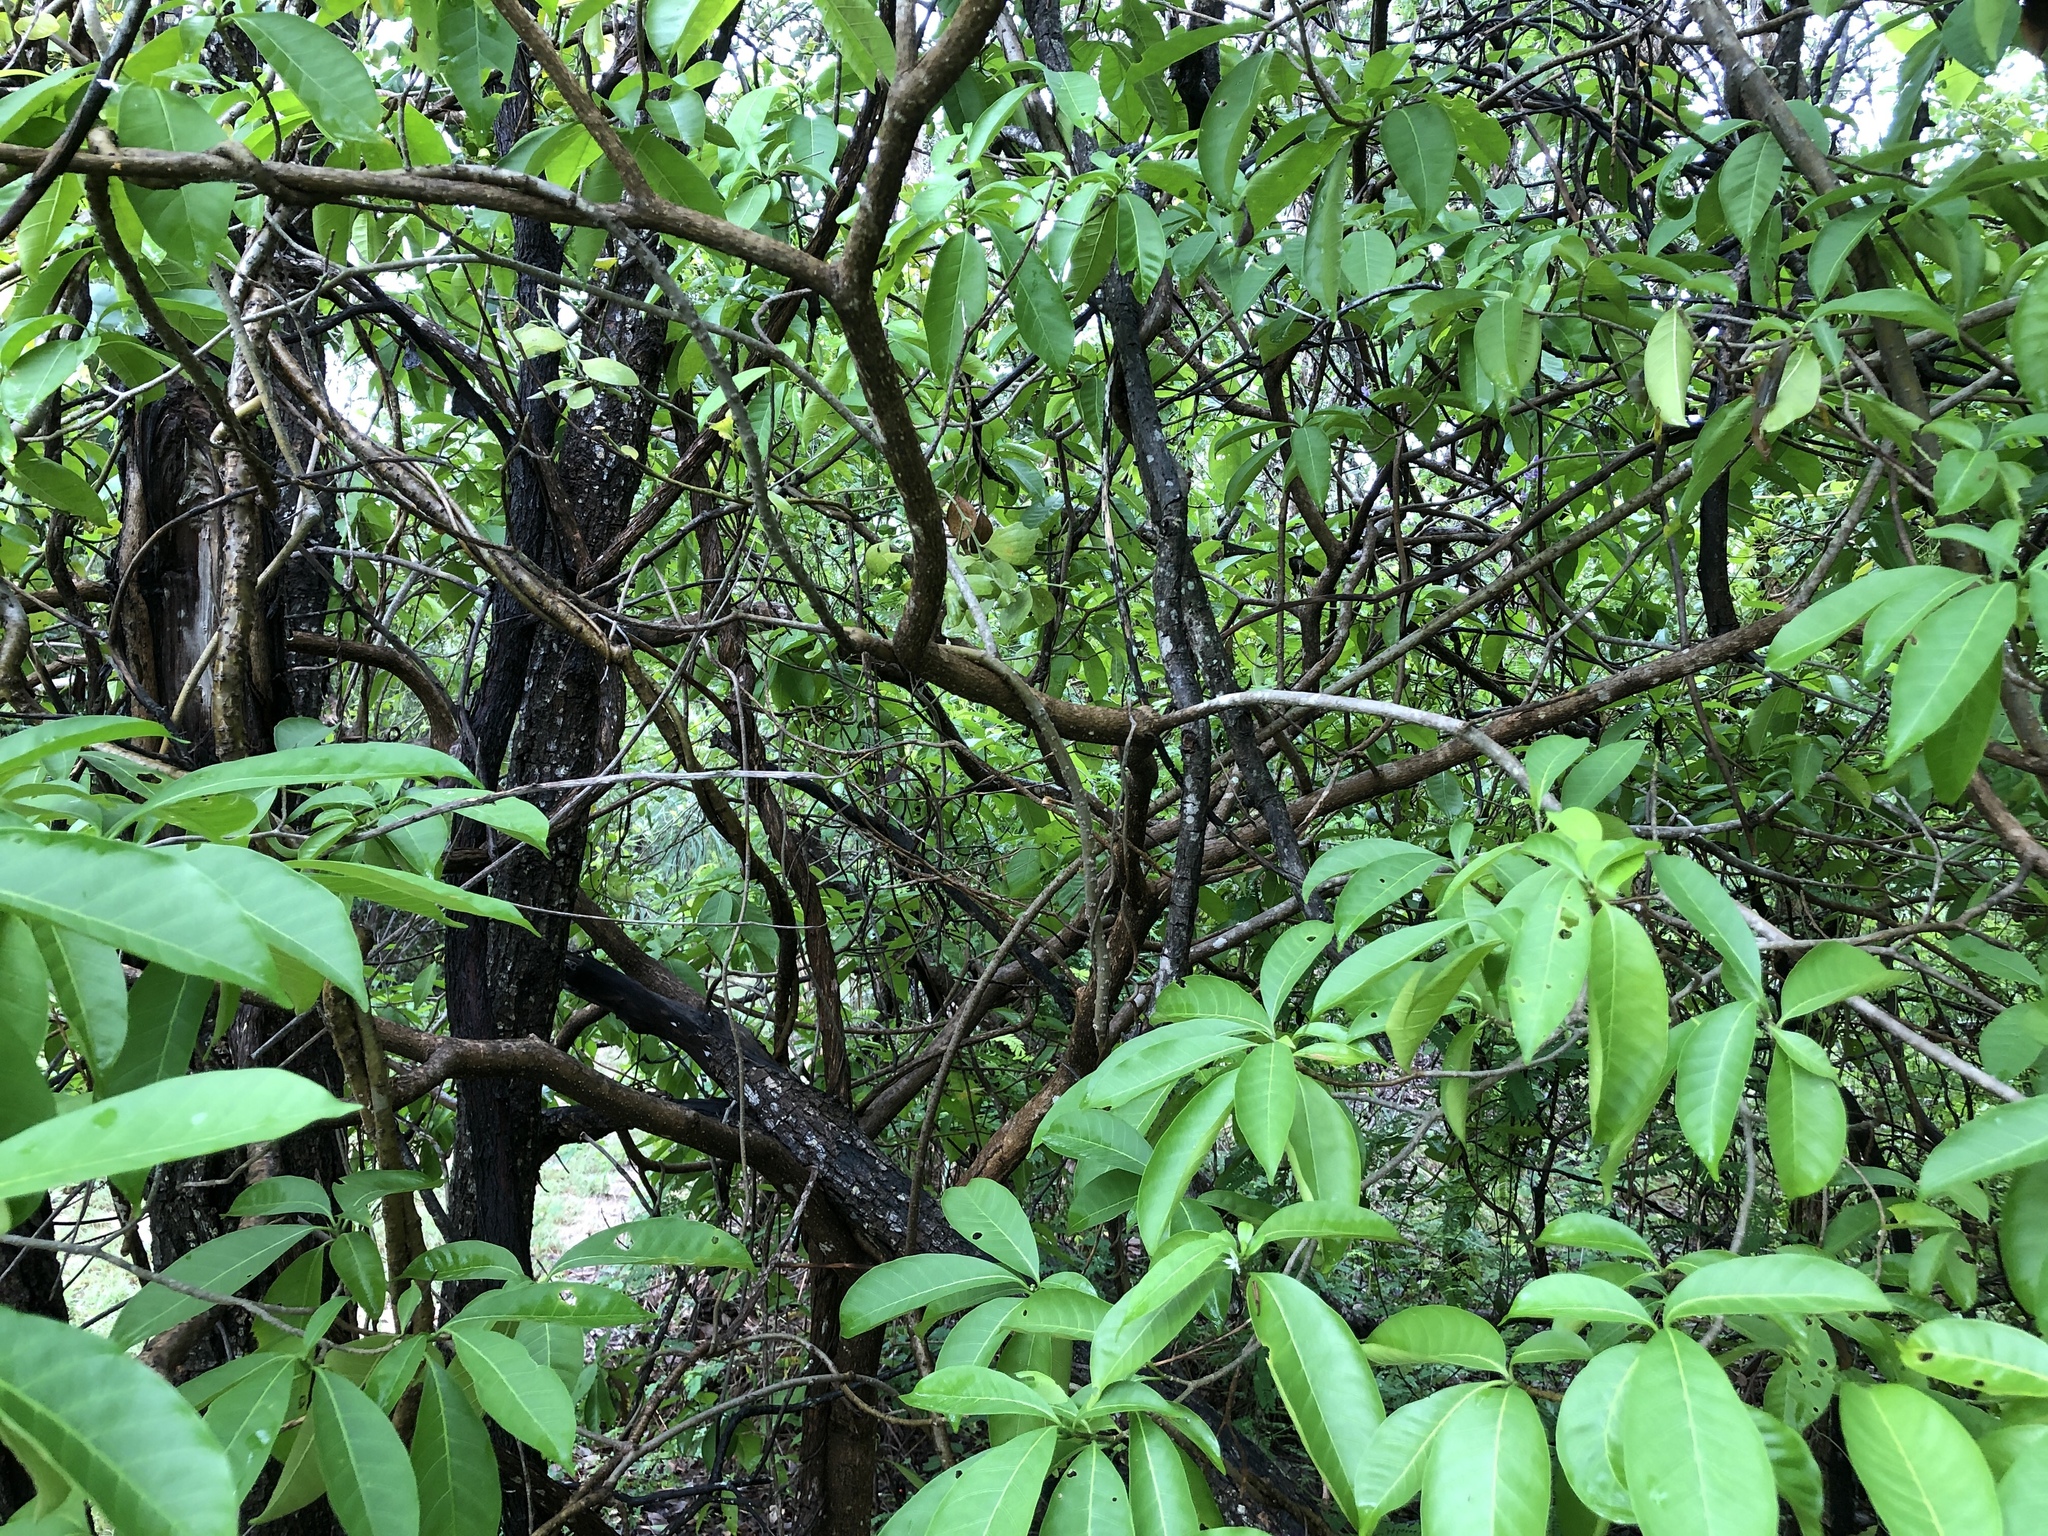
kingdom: Plantae
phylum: Tracheophyta
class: Magnoliopsida
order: Gentianales
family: Apocynaceae
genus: Tabernaemontana
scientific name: Tabernaemontana pandacaqui
